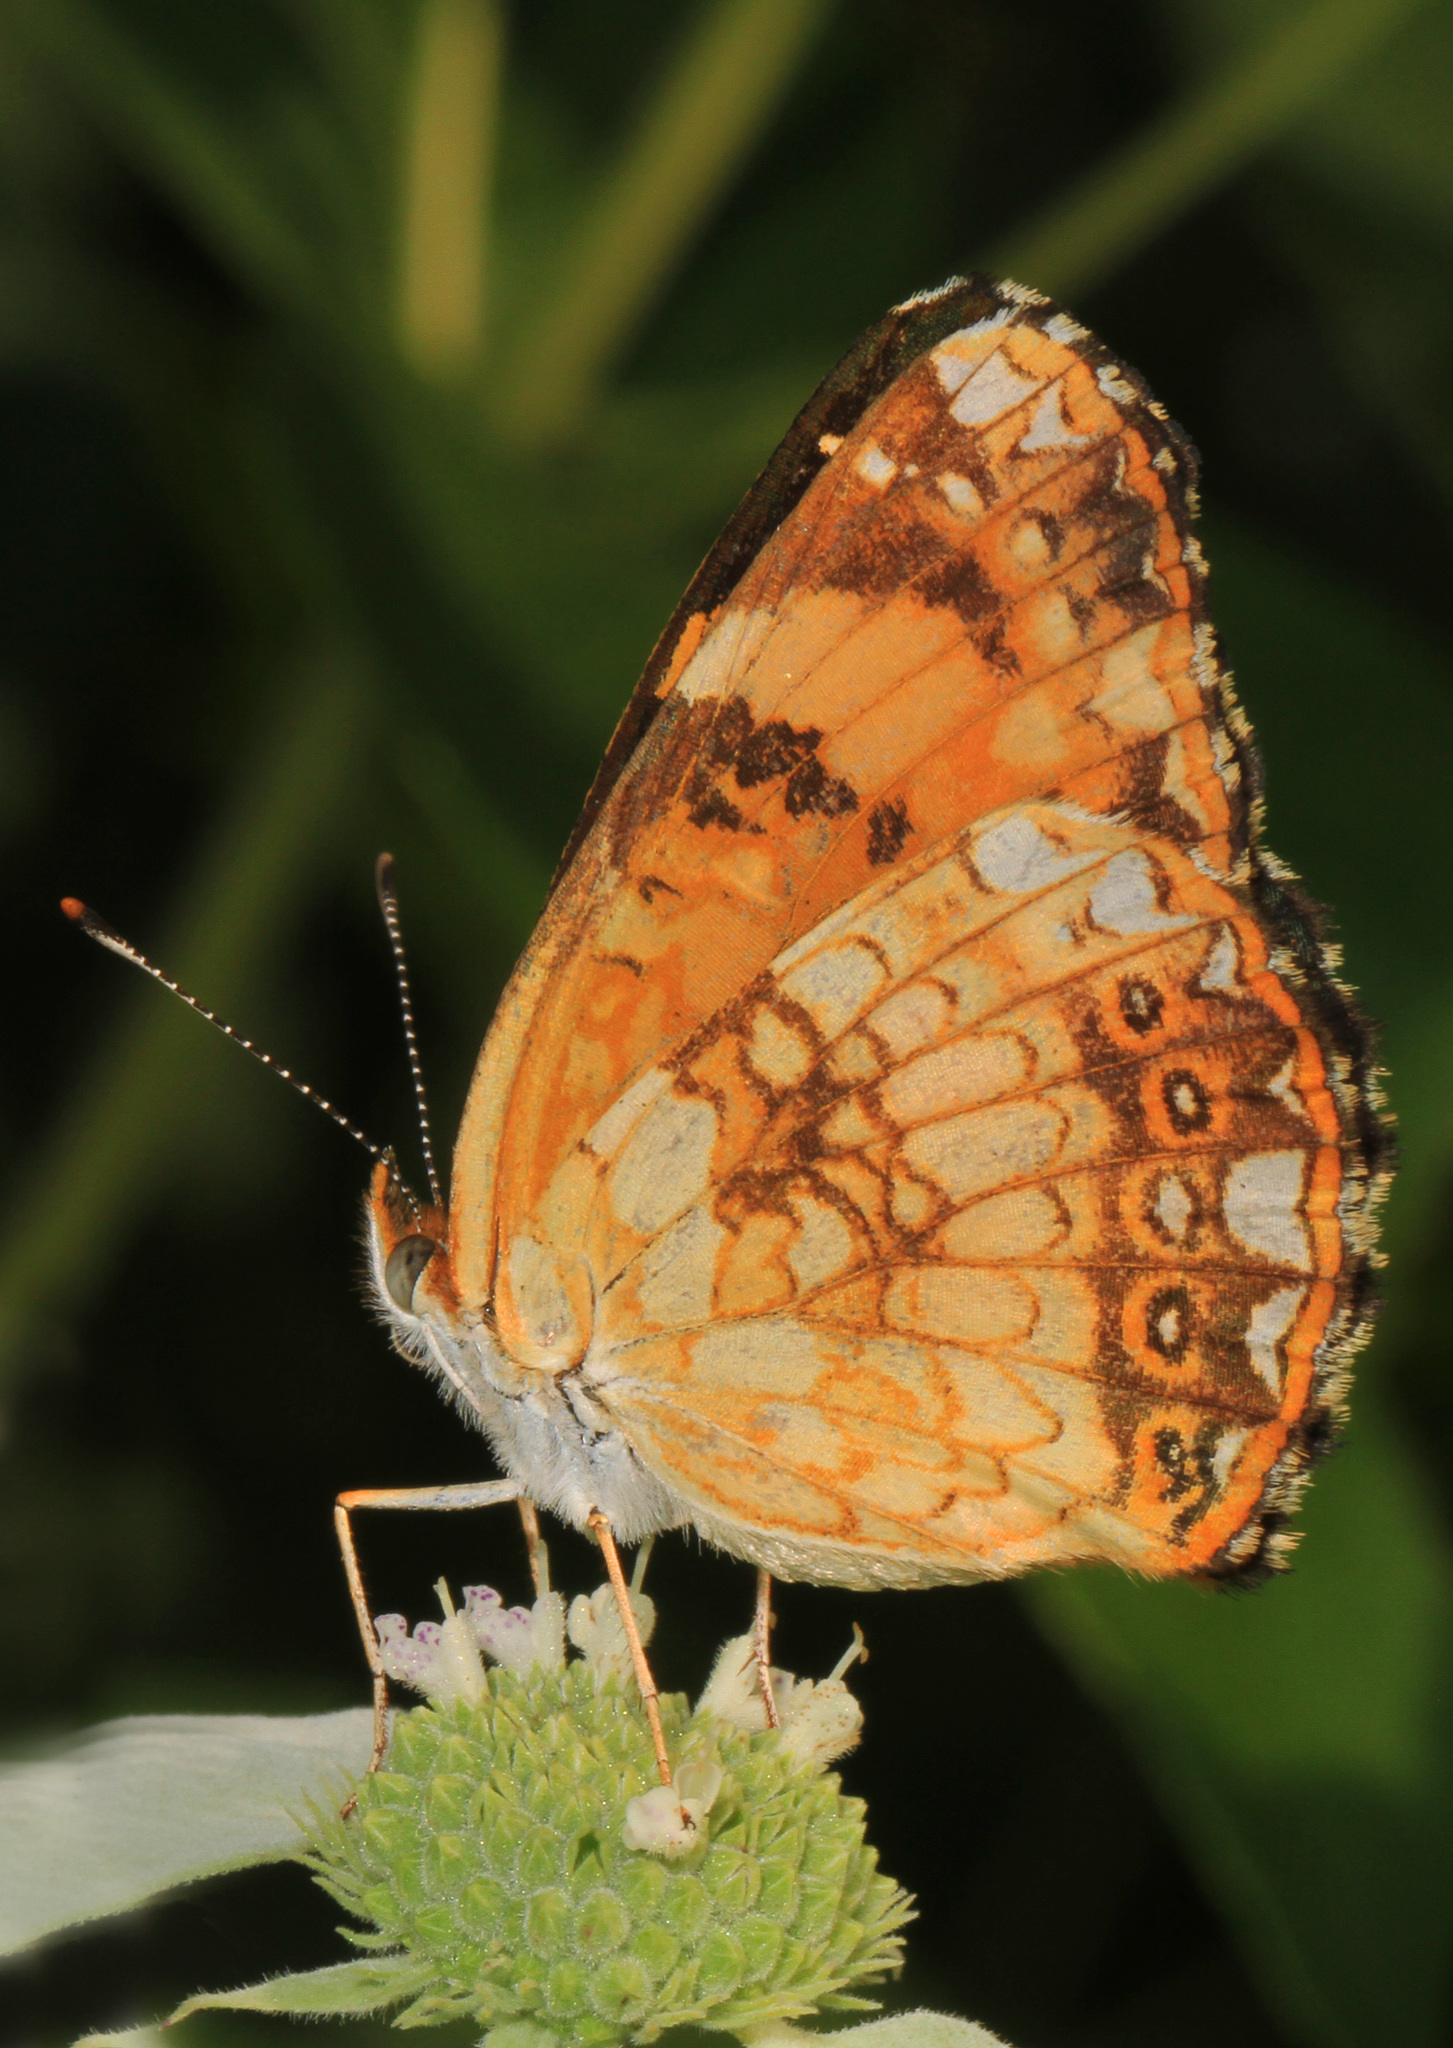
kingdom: Animalia
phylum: Arthropoda
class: Insecta
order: Lepidoptera
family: Nymphalidae
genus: Chlosyne
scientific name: Chlosyne nycteis
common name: Silvery checkerspot
